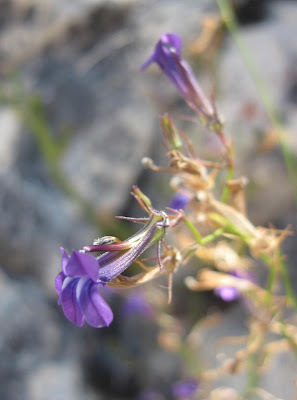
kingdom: Plantae
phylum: Tracheophyta
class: Magnoliopsida
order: Asterales
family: Campanulaceae
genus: Lobelia
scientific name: Lobelia linearis
